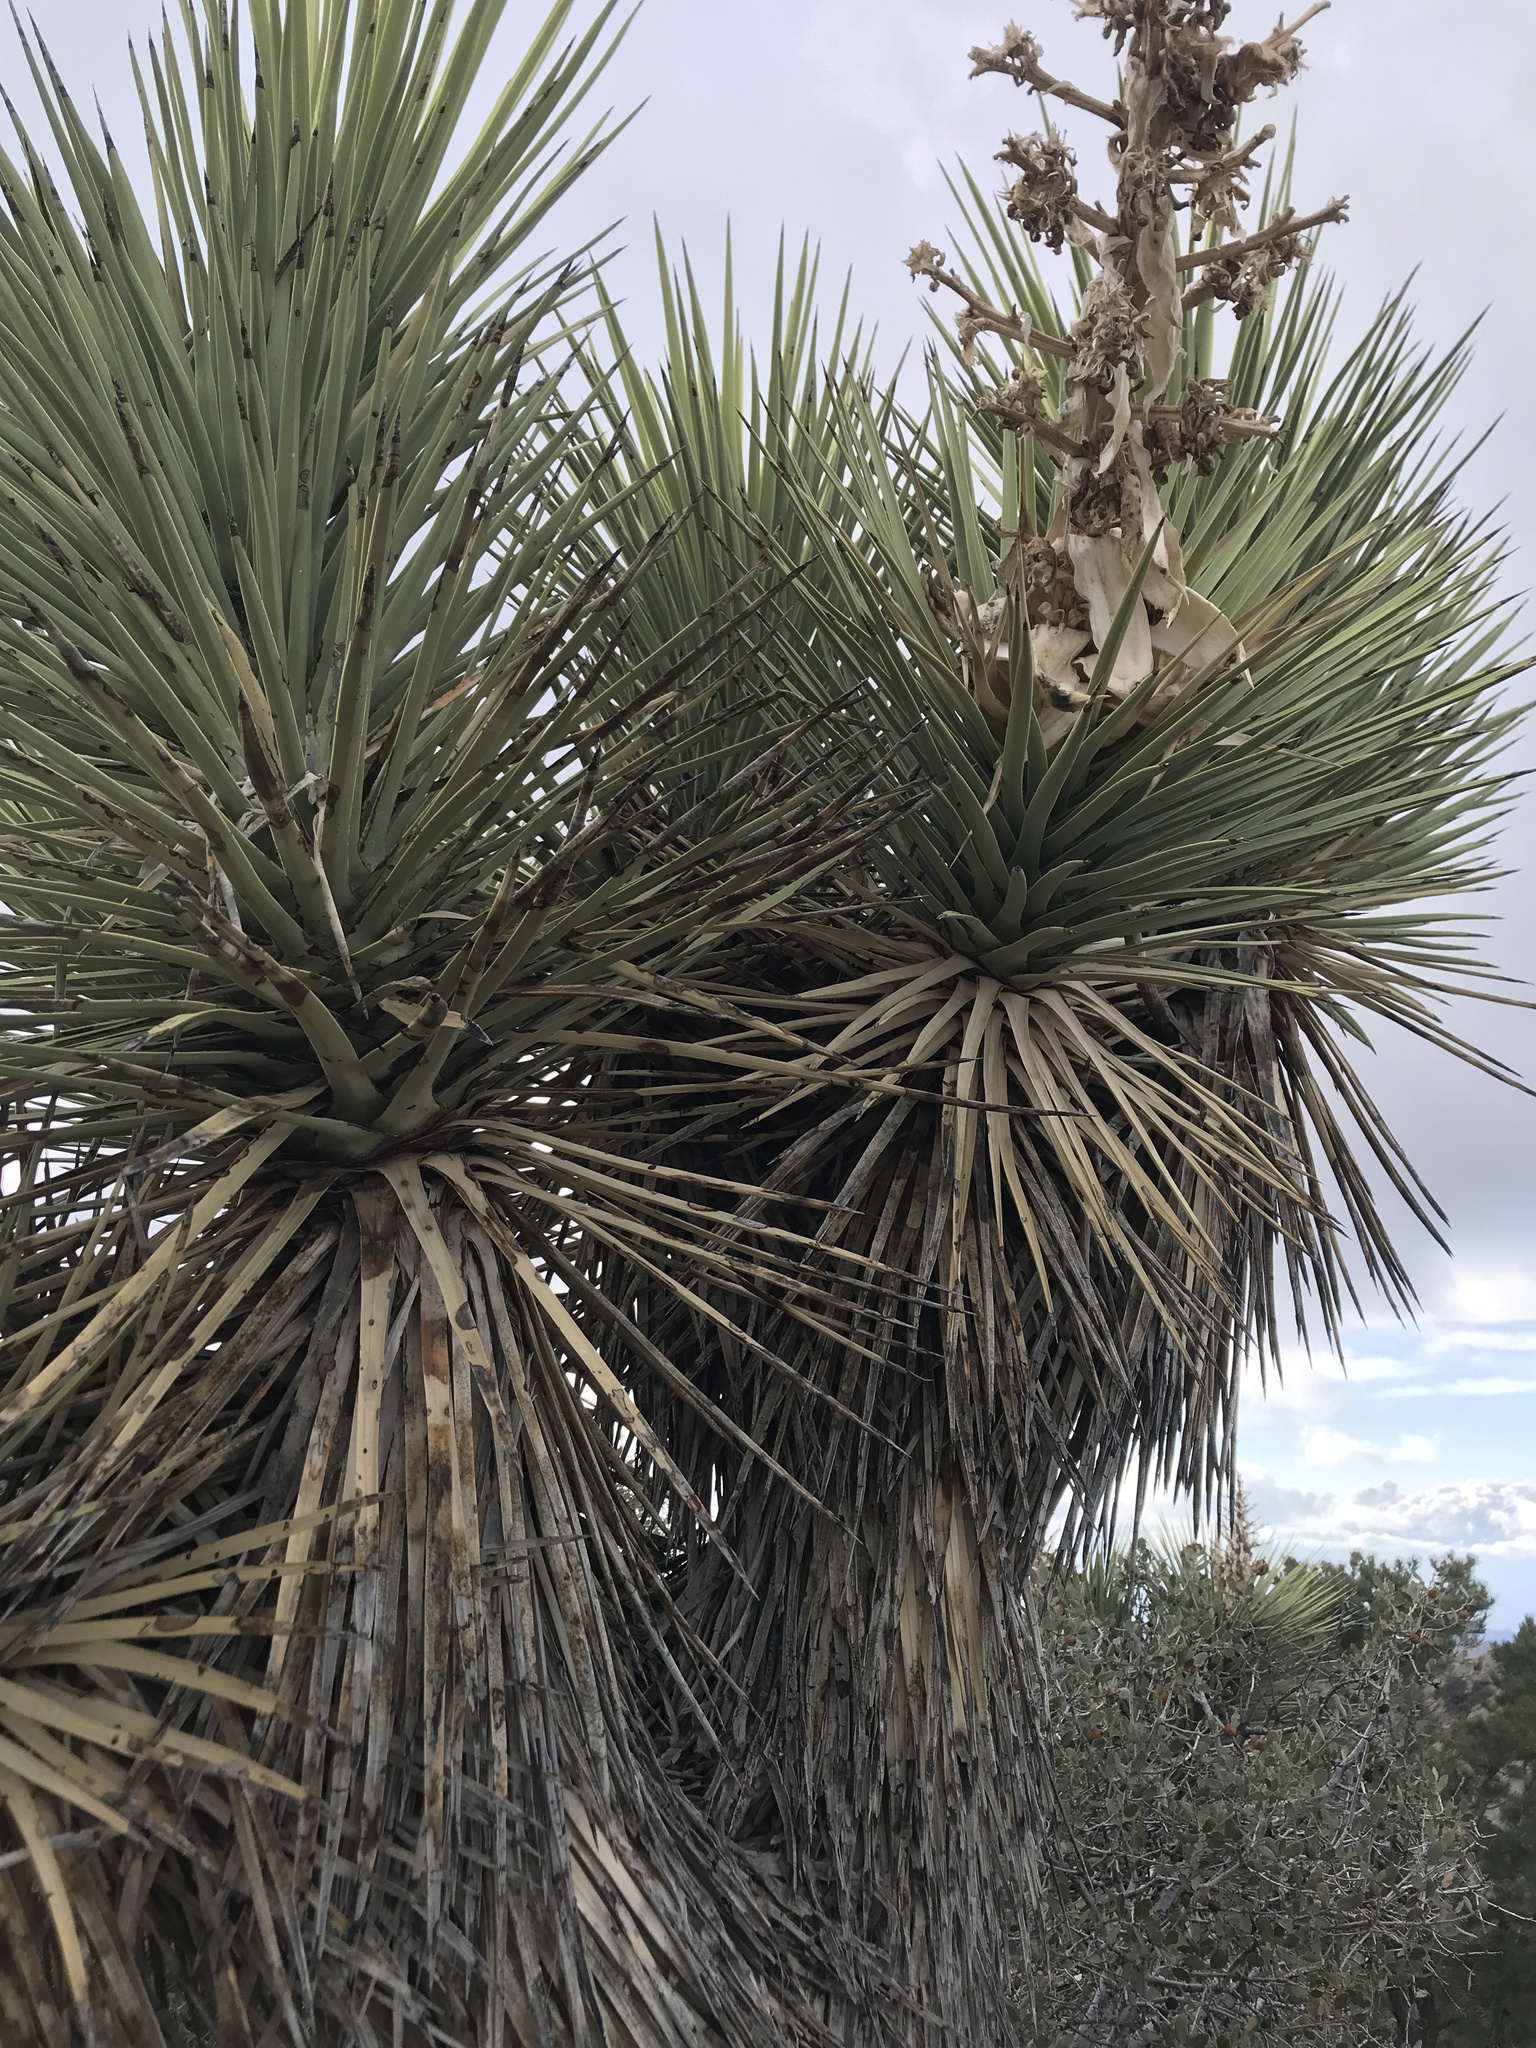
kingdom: Plantae
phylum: Tracheophyta
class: Liliopsida
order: Asparagales
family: Asparagaceae
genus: Yucca
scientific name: Yucca brevifolia
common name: Joshua tree
